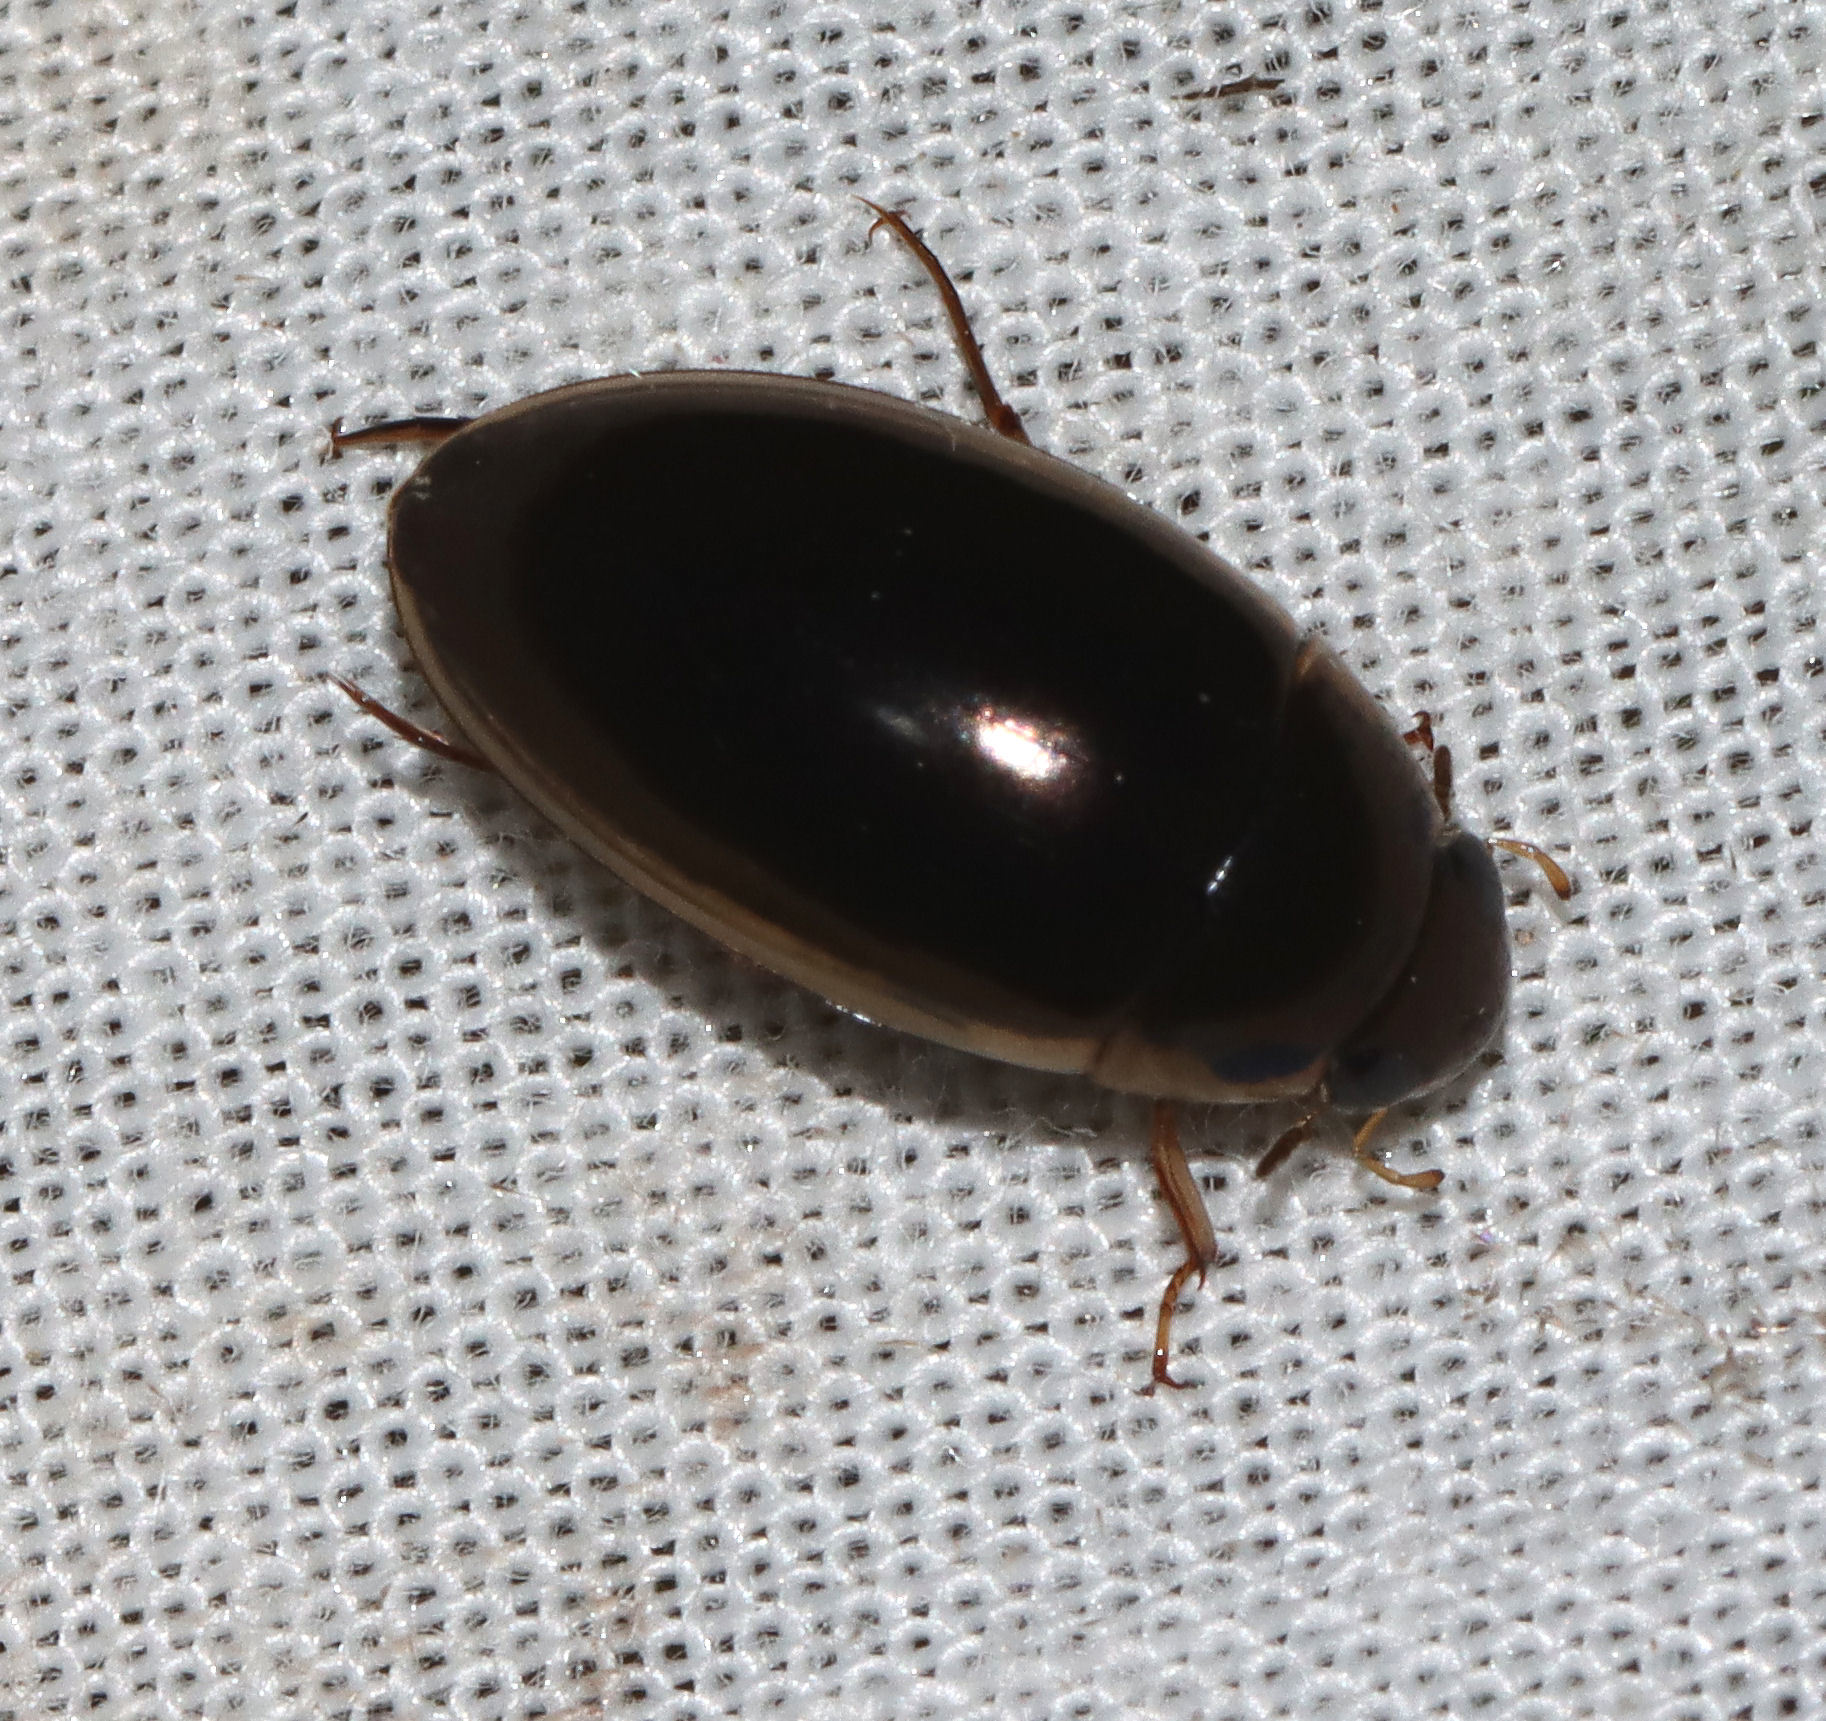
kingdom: Animalia
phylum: Arthropoda
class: Insecta
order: Coleoptera
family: Hydrophilidae
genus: Tropisternus
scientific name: Tropisternus lateralis
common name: Lateral-banded water scavenger beetle
